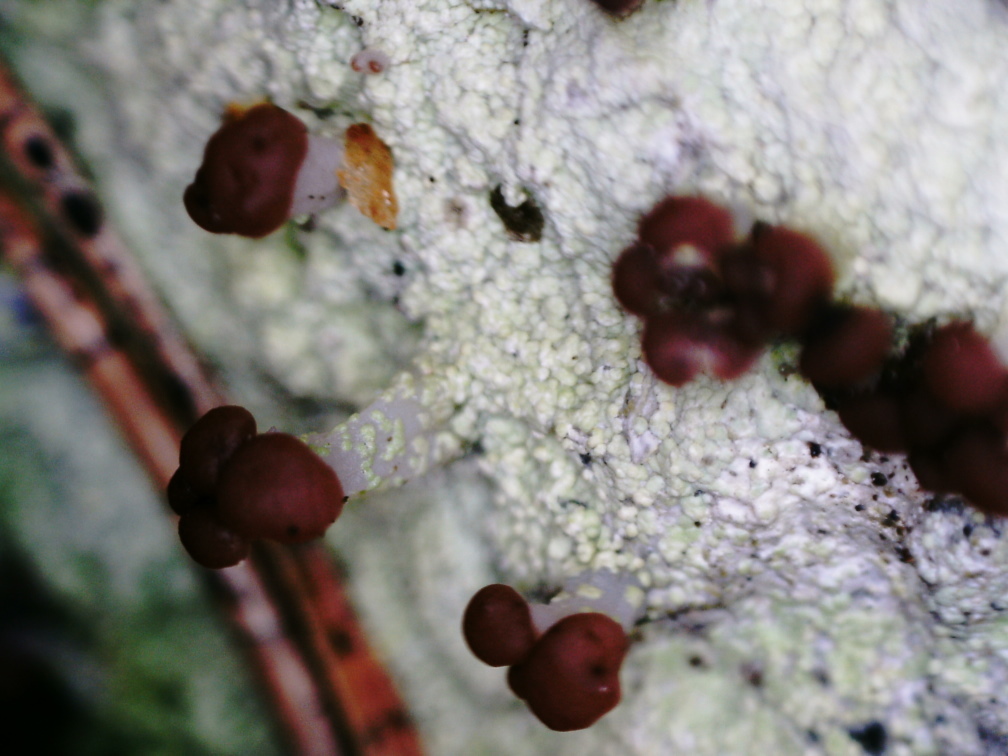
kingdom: Fungi
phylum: Ascomycota
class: Lecanoromycetes
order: Baeomycetales
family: Baeomycetaceae
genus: Baeomyces
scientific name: Baeomyces carneus
